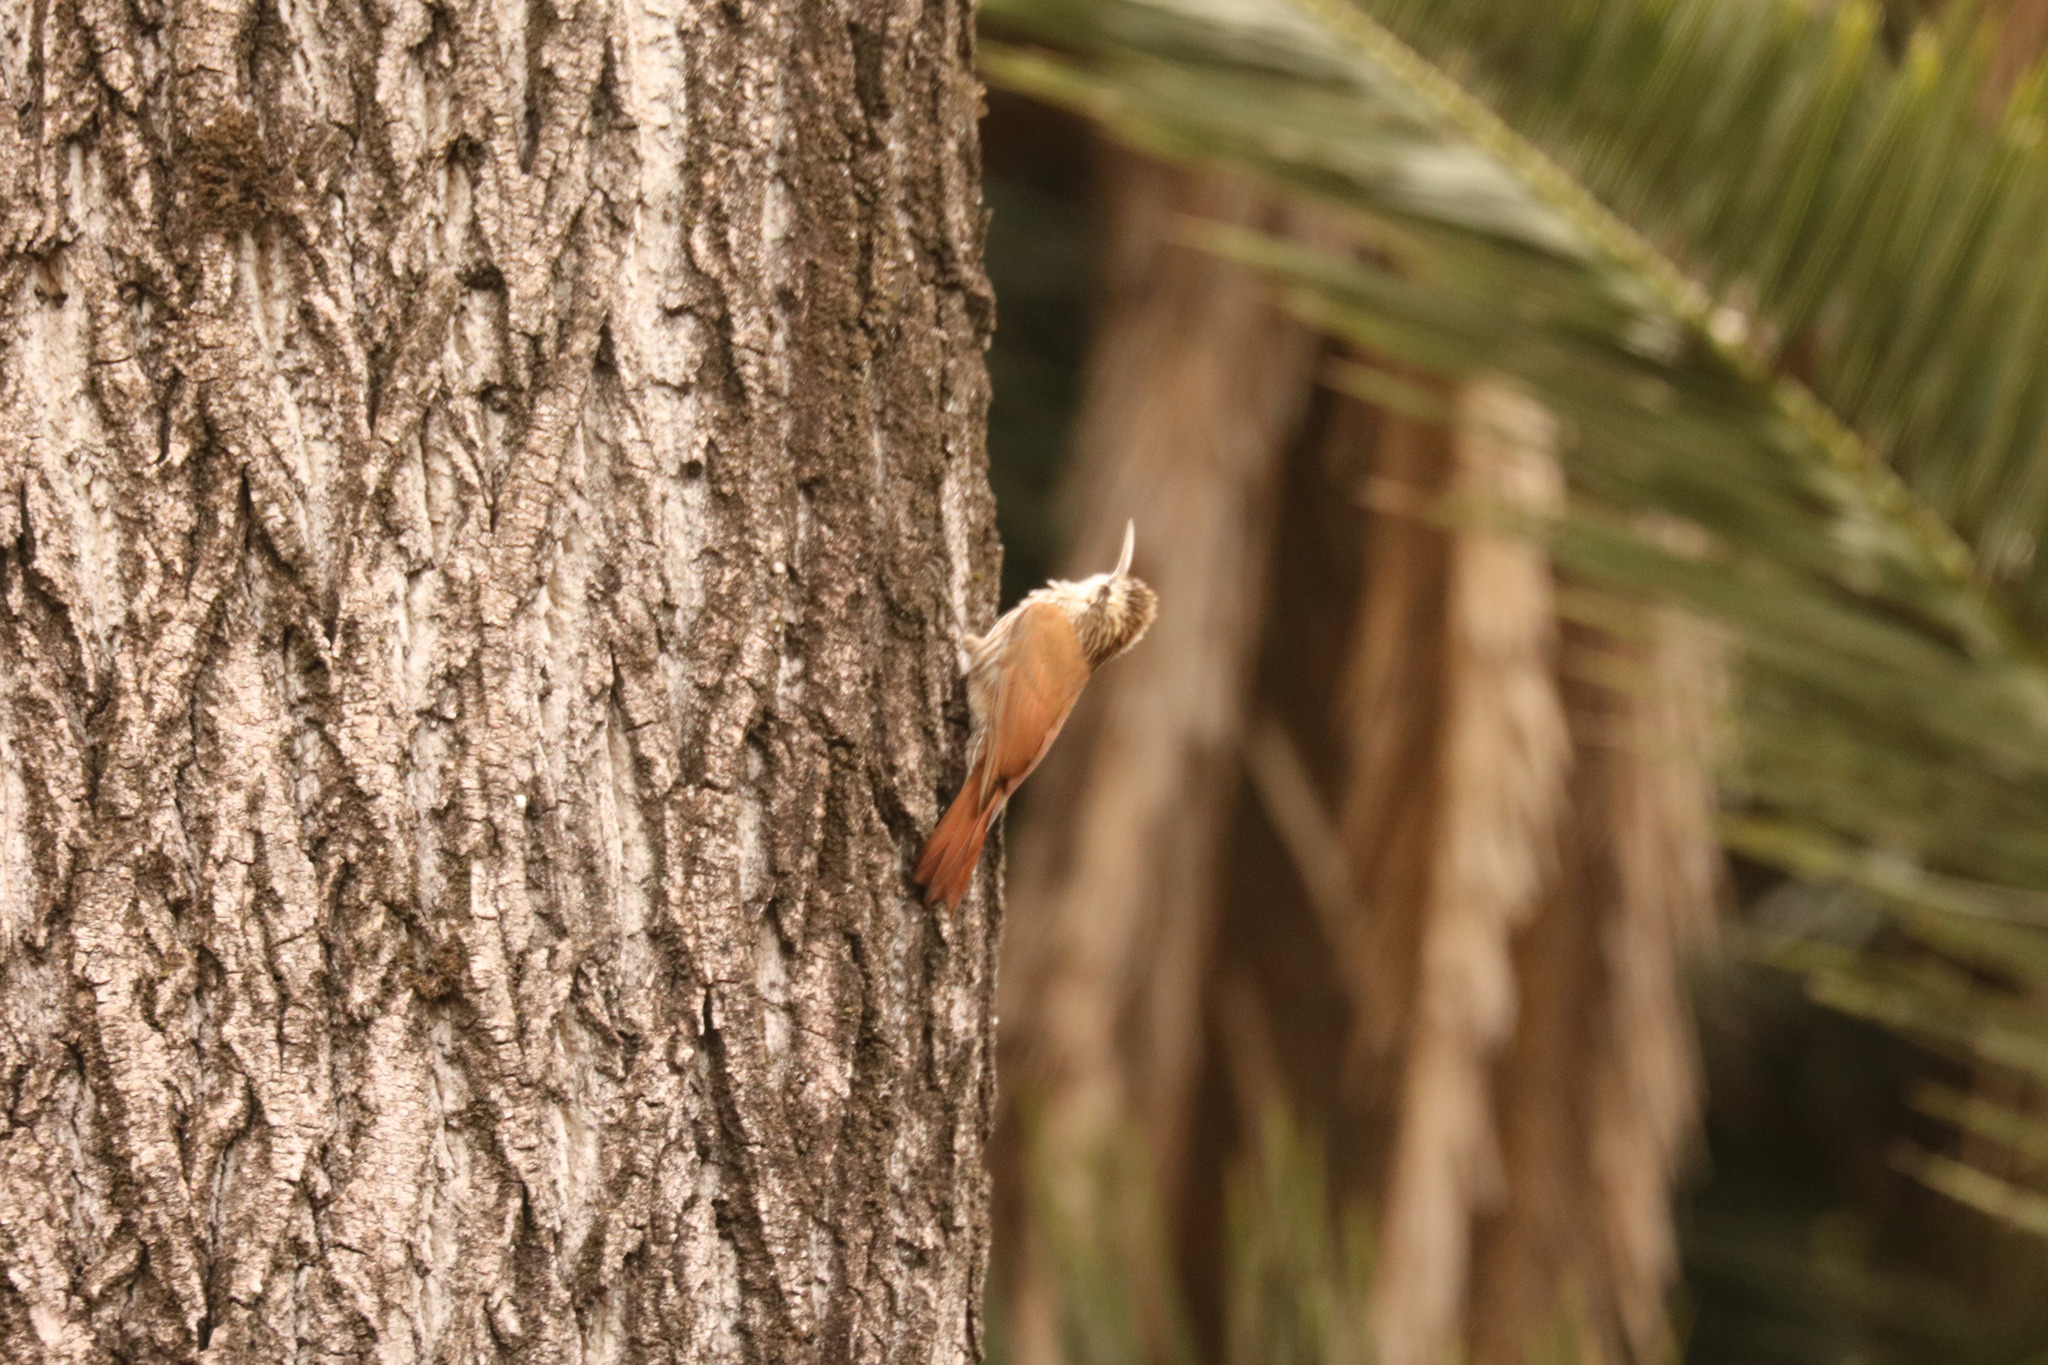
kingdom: Animalia
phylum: Chordata
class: Aves
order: Passeriformes
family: Furnariidae
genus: Lepidocolaptes
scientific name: Lepidocolaptes angustirostris
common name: Narrow-billed woodcreeper
